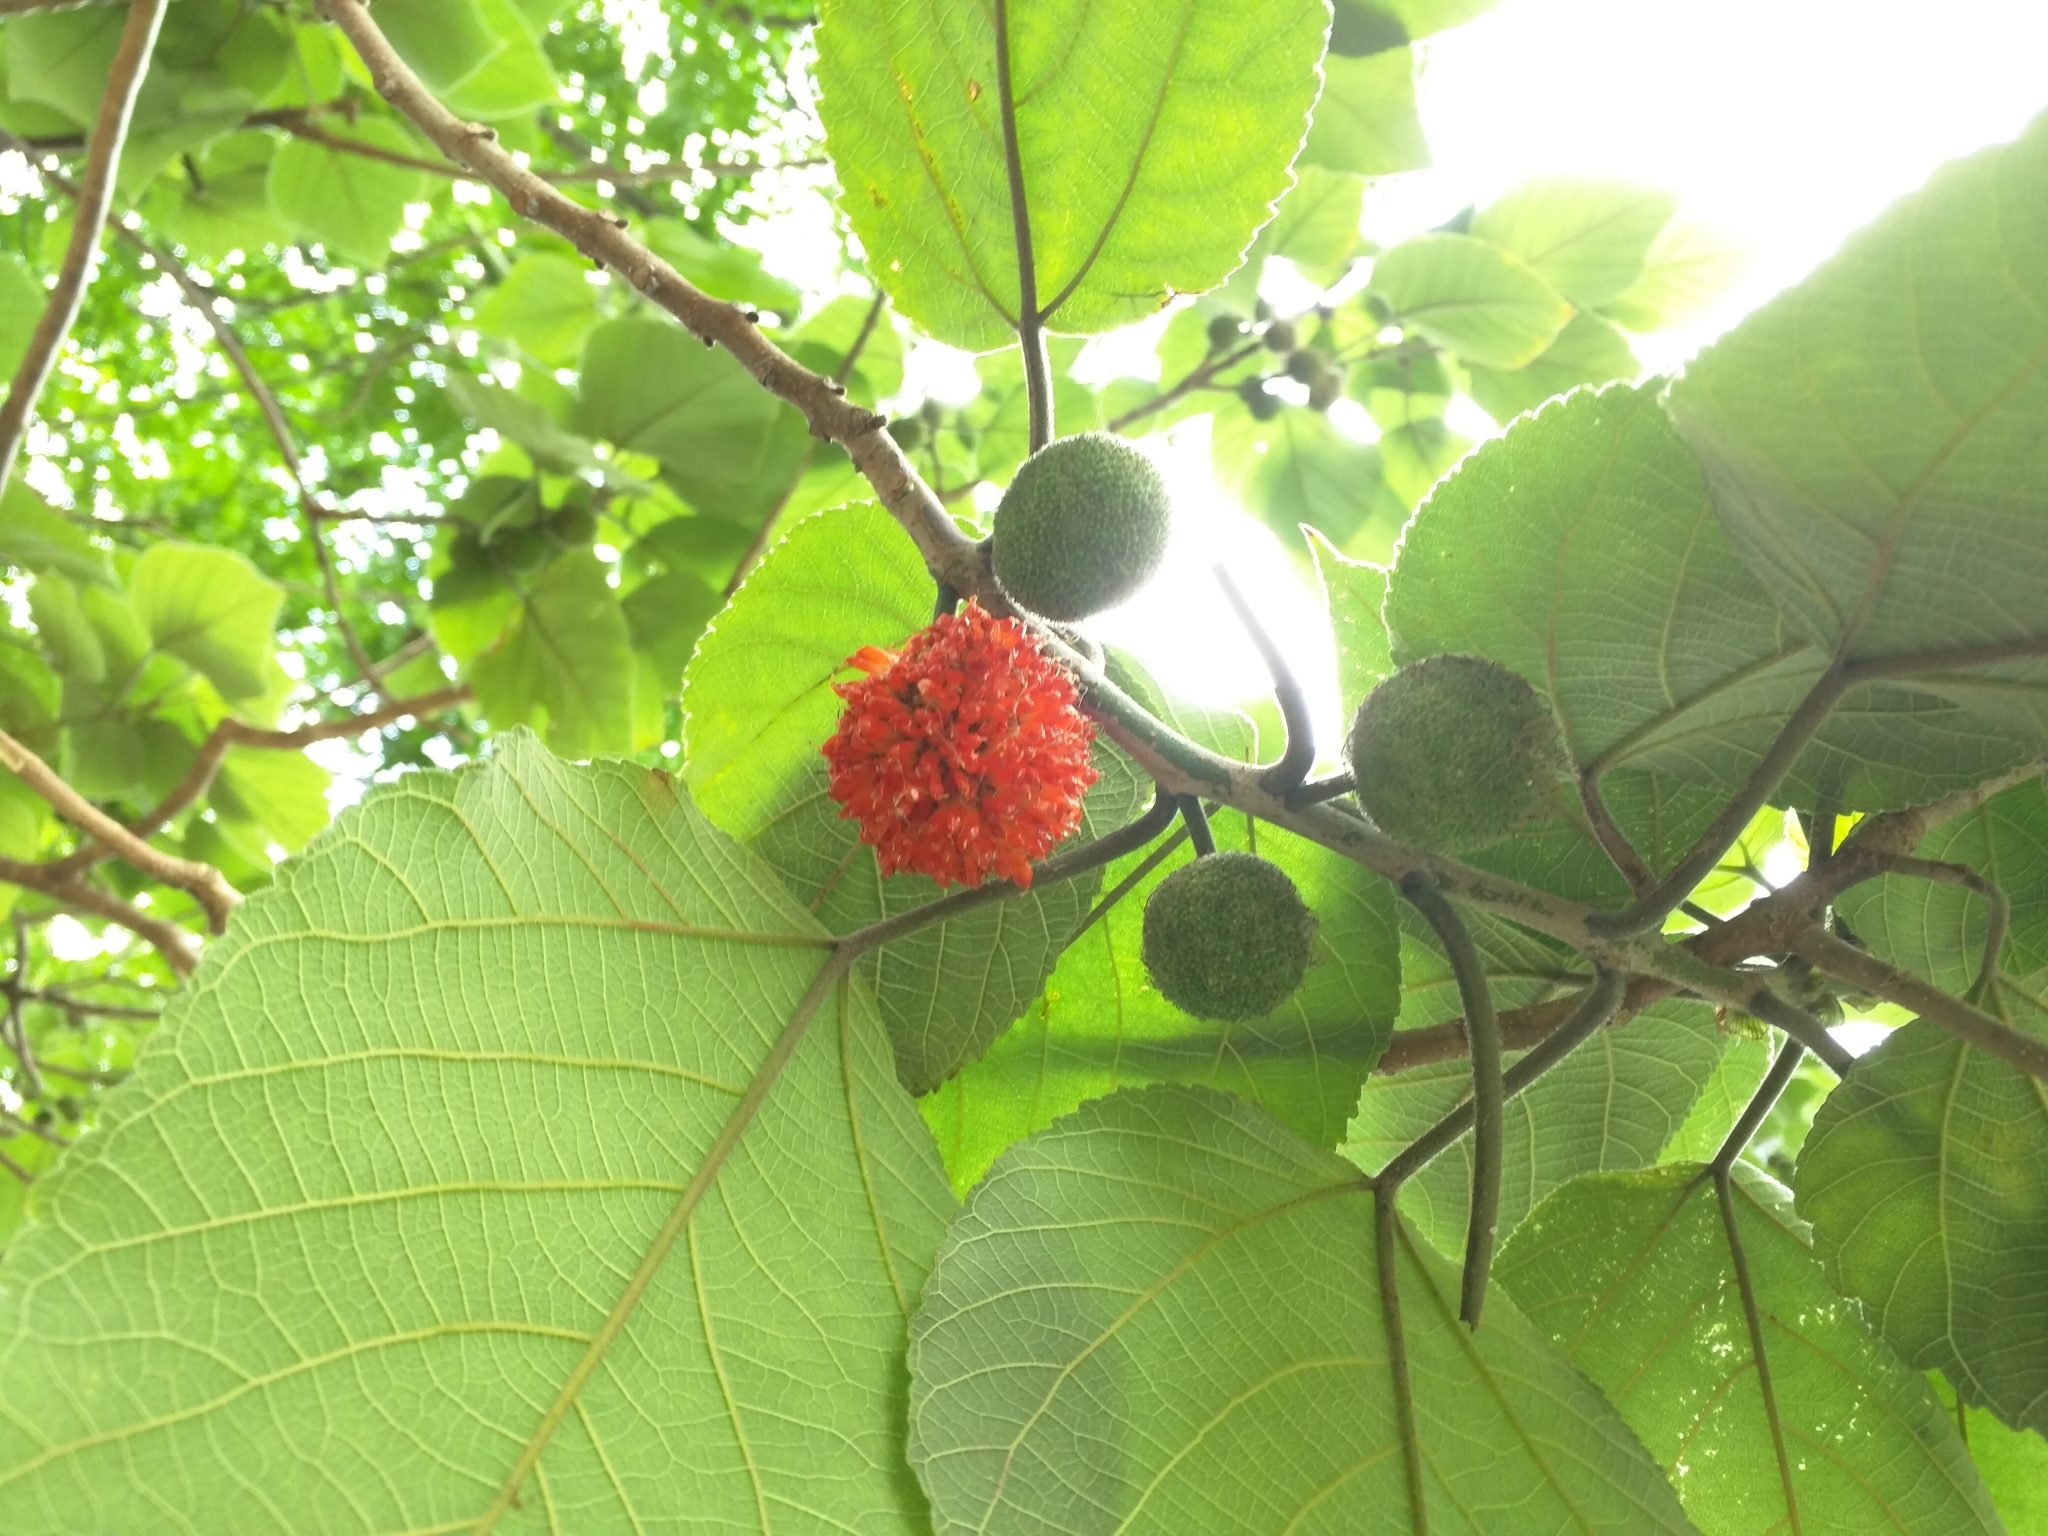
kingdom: Plantae
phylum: Tracheophyta
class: Magnoliopsida
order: Rosales
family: Moraceae
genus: Broussonetia
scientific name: Broussonetia papyrifera
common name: Paper mulberry
